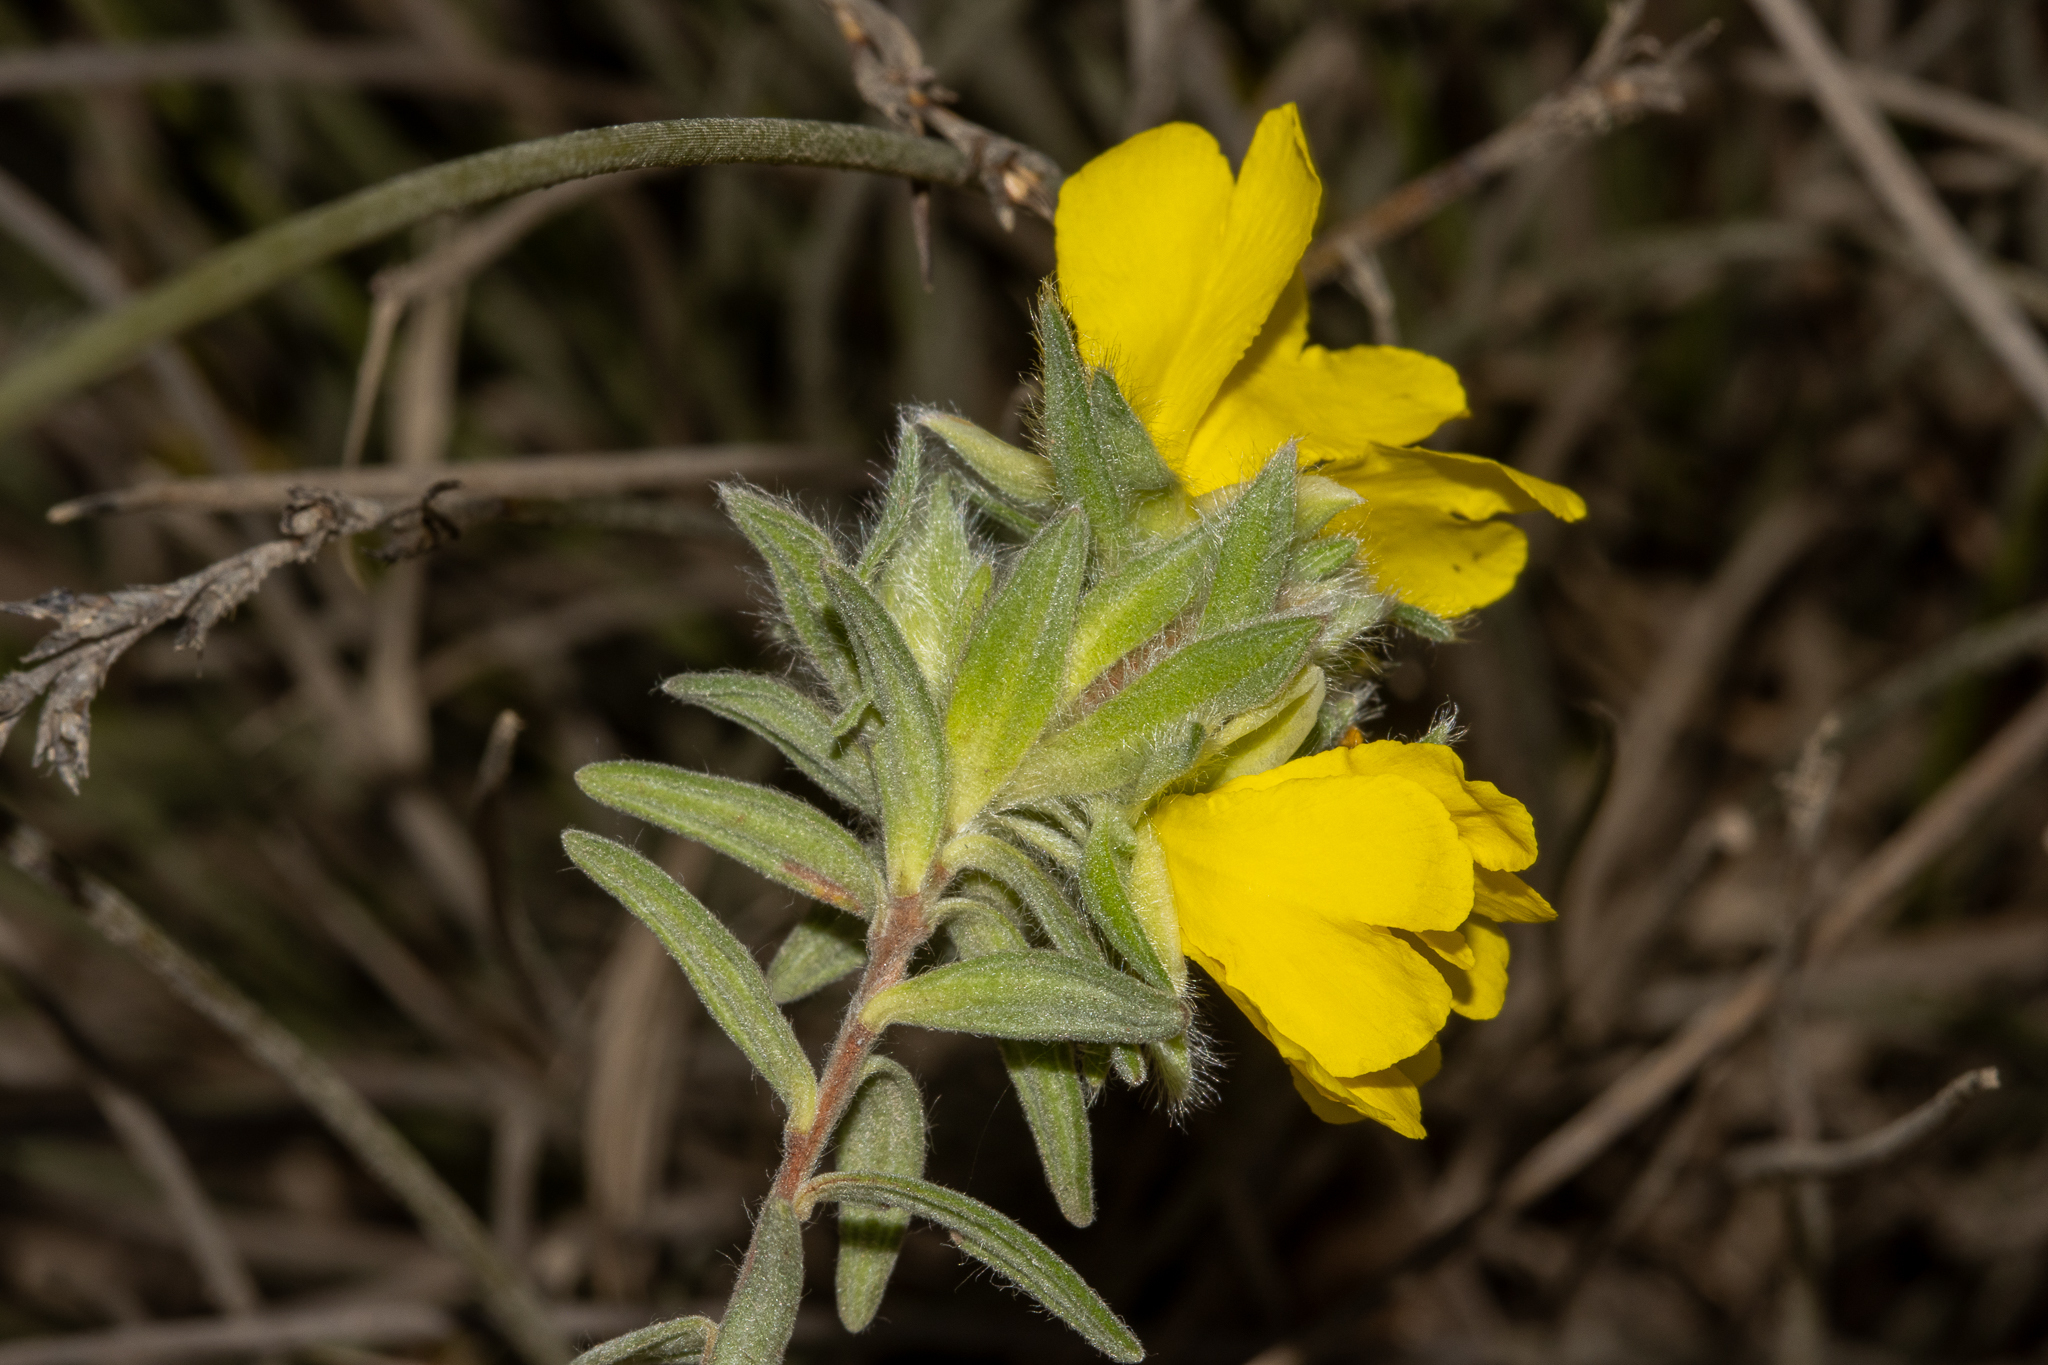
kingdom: Plantae
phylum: Tracheophyta
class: Magnoliopsida
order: Dilleniales
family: Dilleniaceae
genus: Hibbertia
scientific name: Hibbertia crinita
